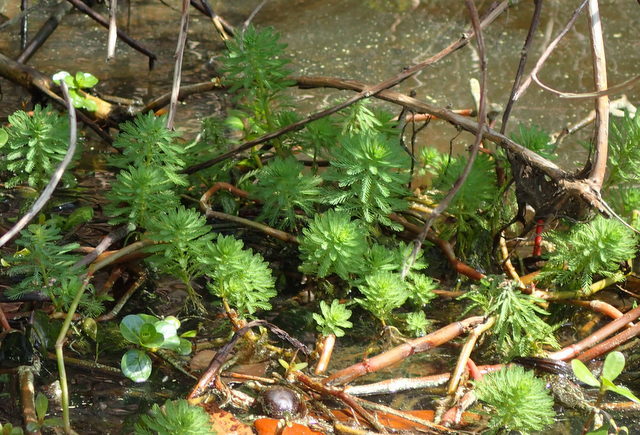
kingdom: Plantae
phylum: Tracheophyta
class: Magnoliopsida
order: Saxifragales
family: Haloragaceae
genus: Myriophyllum
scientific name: Myriophyllum aquaticum
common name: Parrot's feather
